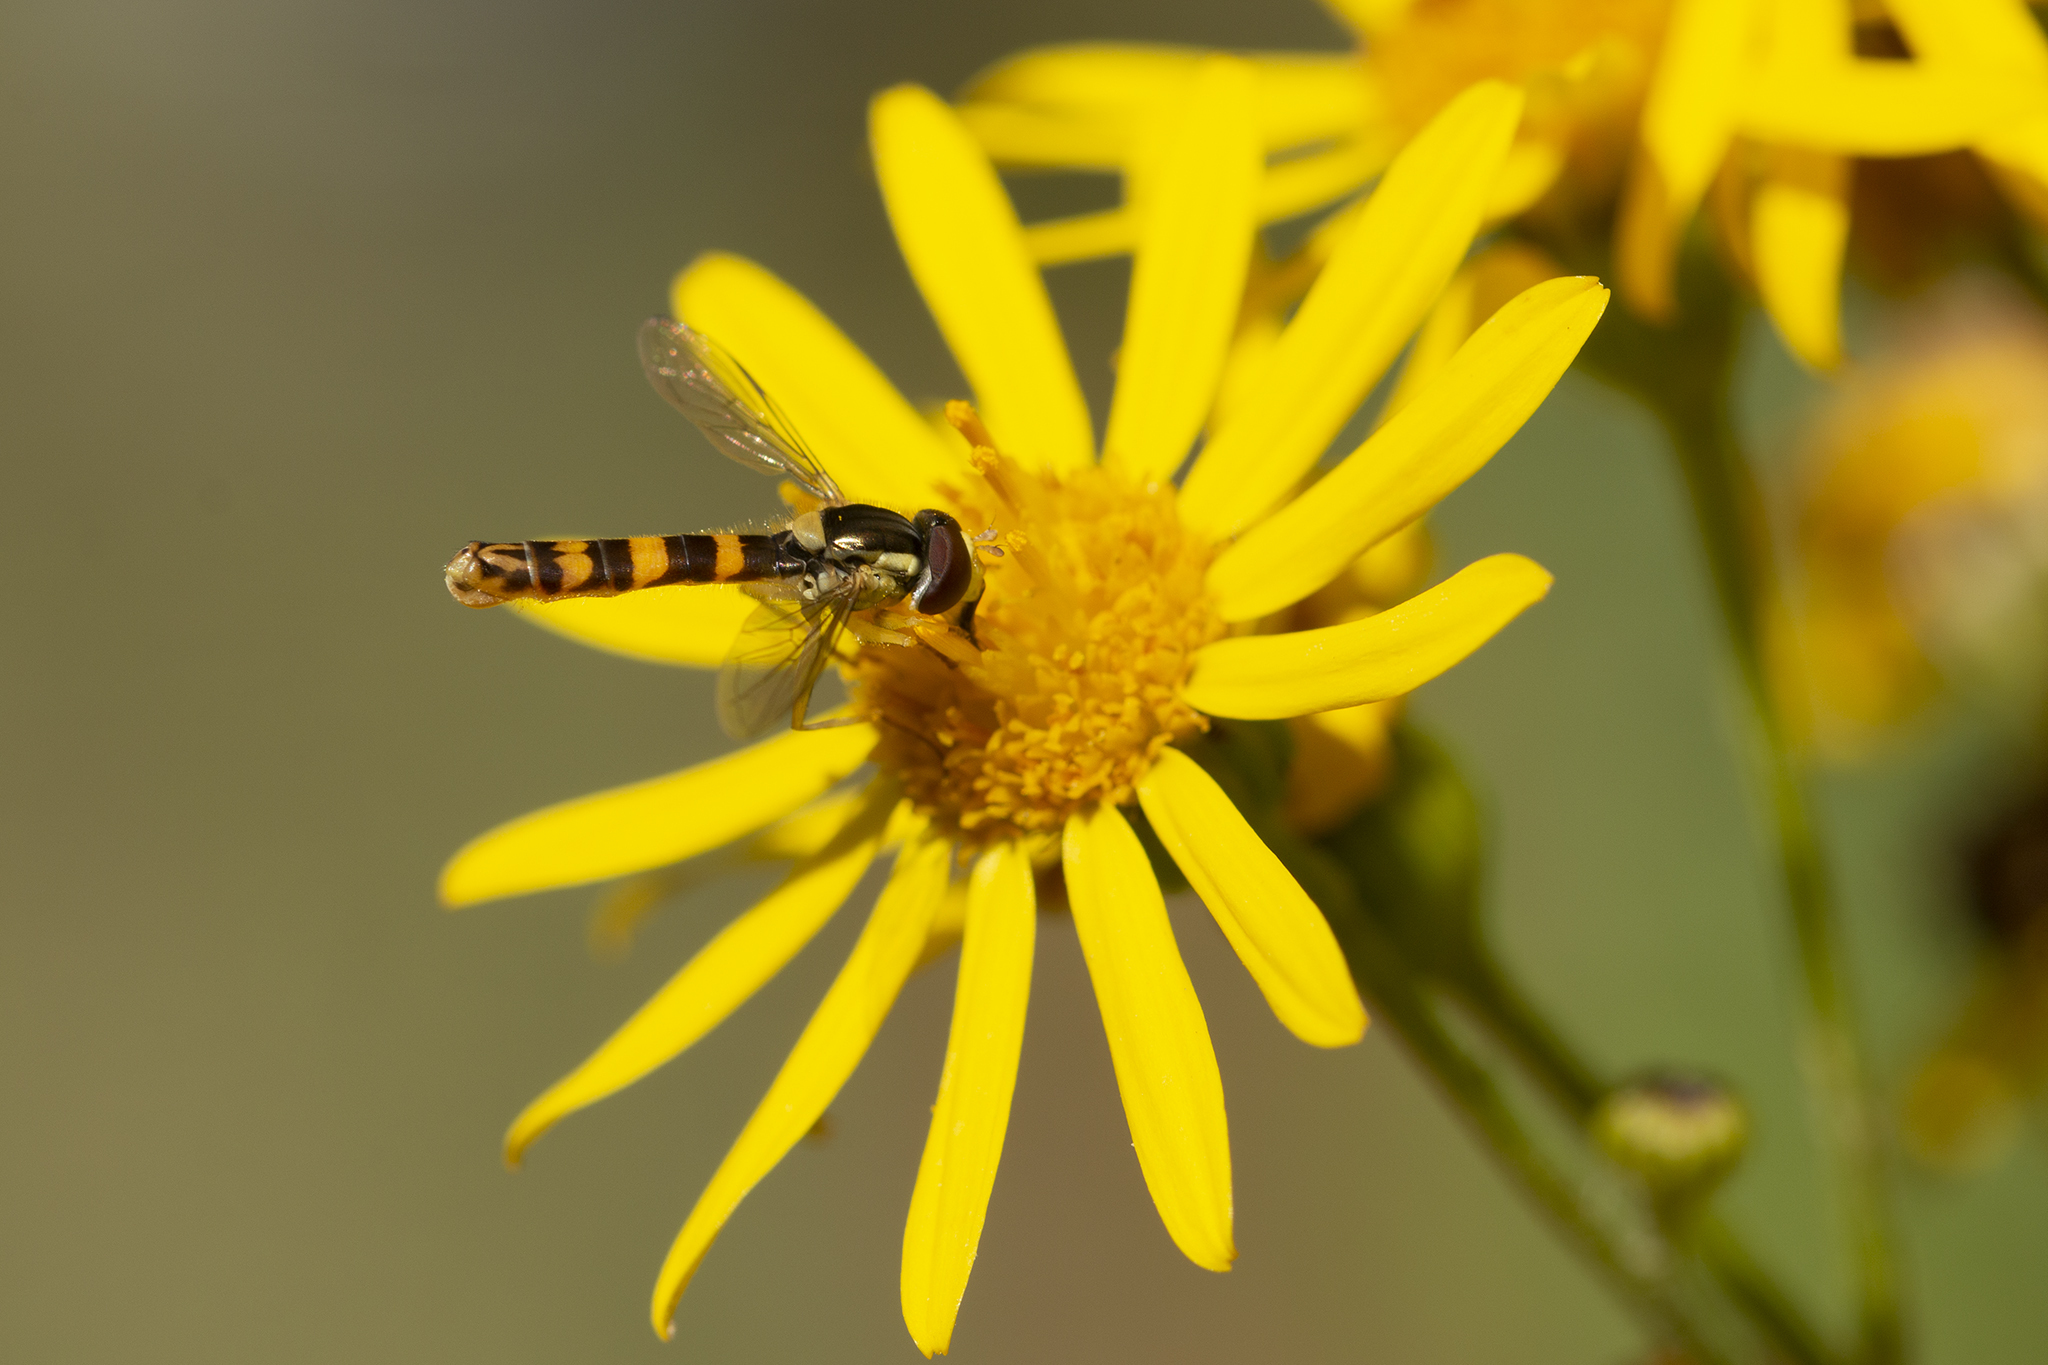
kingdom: Animalia
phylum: Arthropoda
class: Insecta
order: Diptera
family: Syrphidae
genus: Sphaerophoria
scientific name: Sphaerophoria scripta
